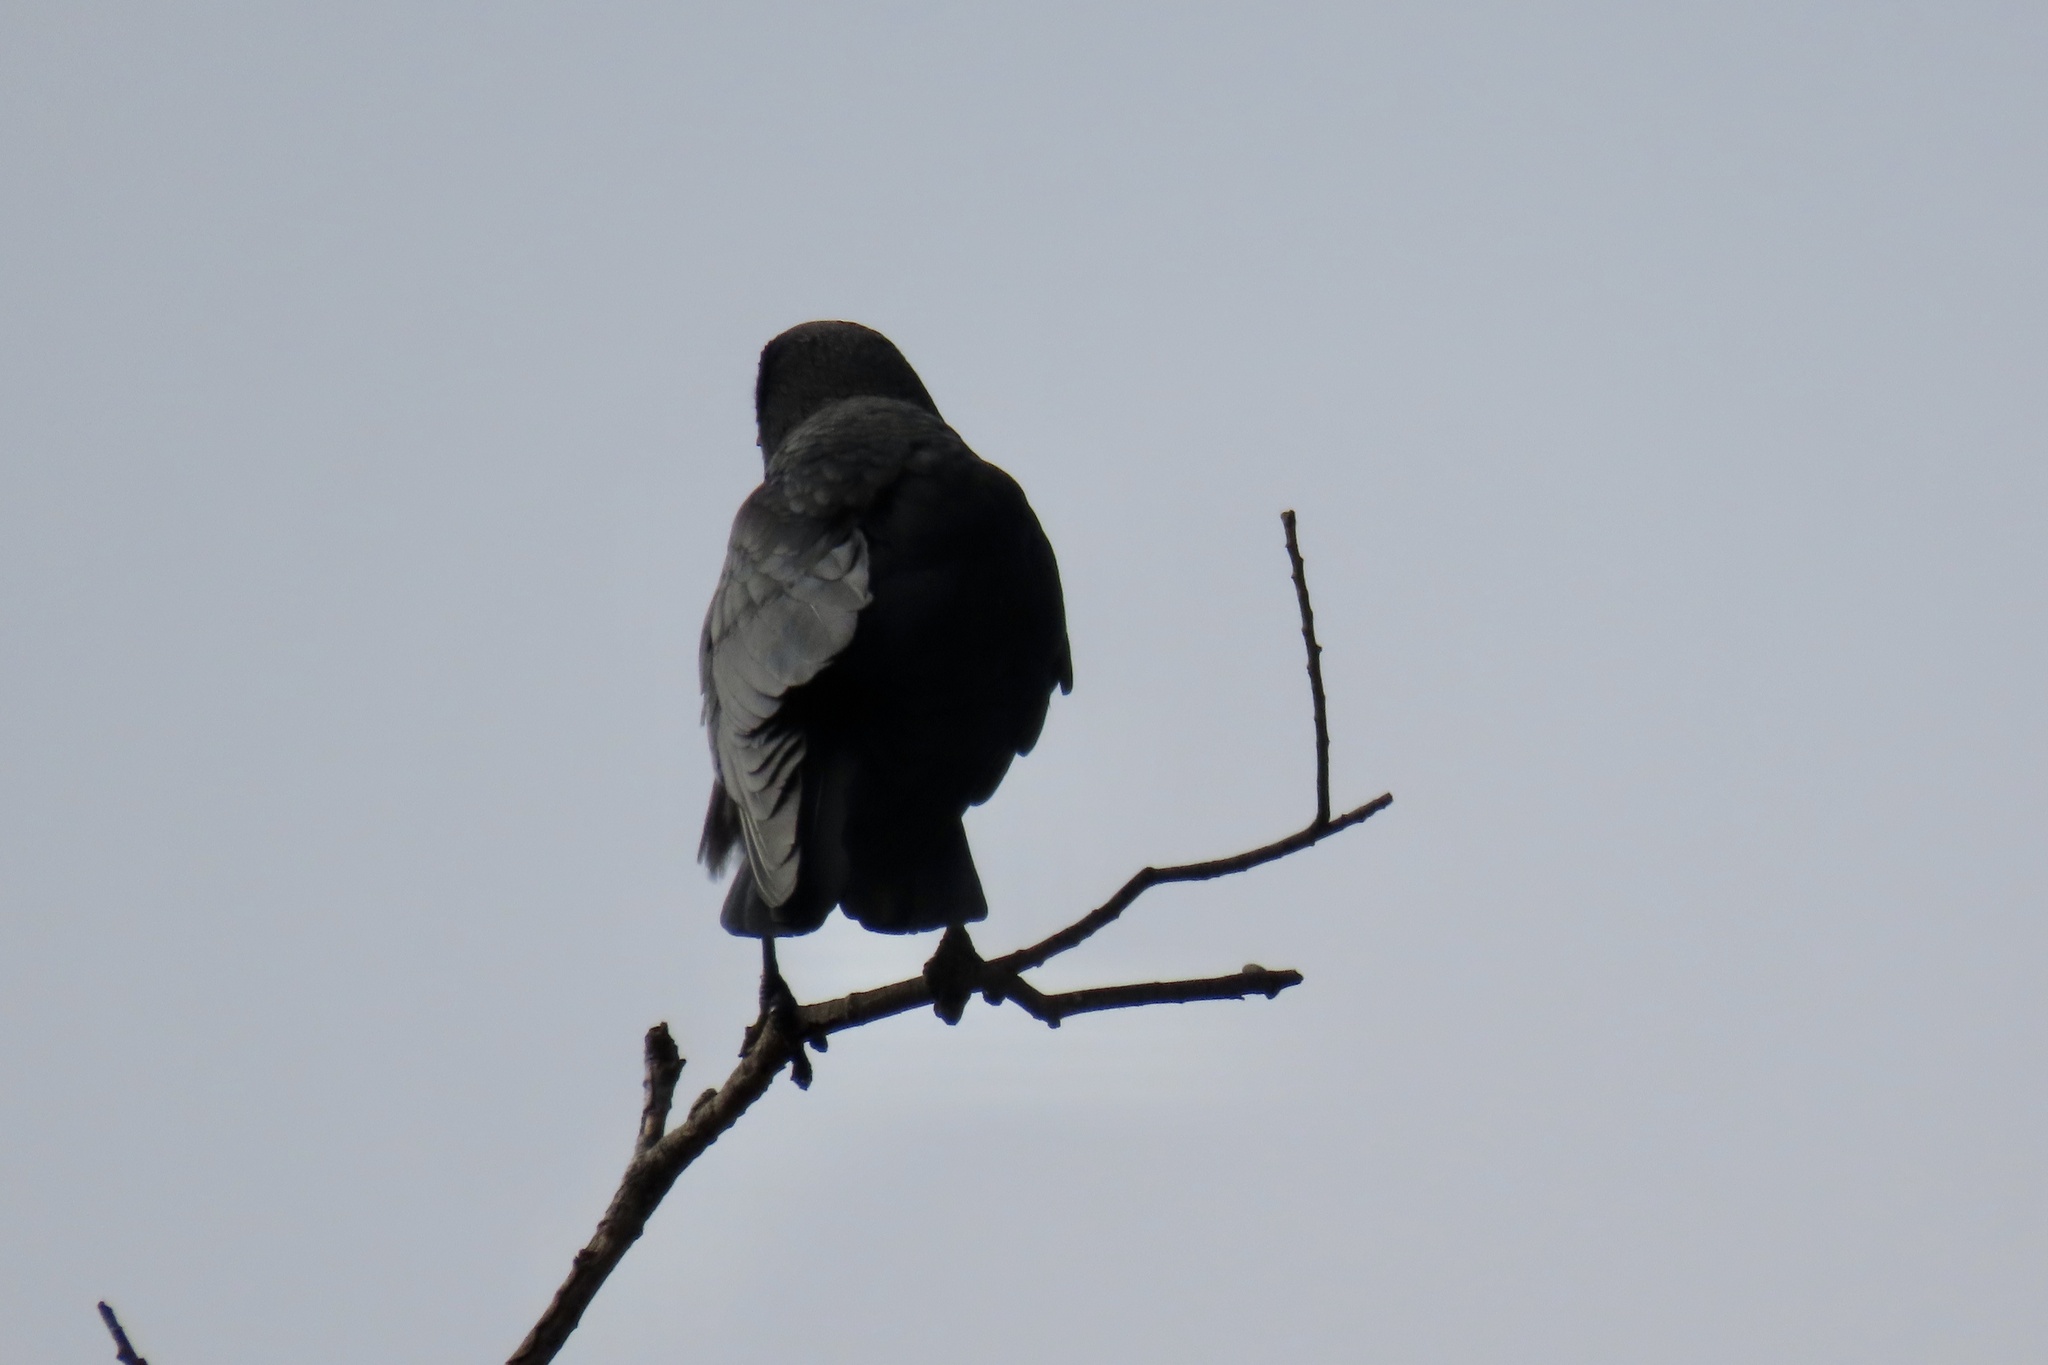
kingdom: Animalia
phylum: Chordata
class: Aves
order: Passeriformes
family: Corvidae
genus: Corvus
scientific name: Corvus brachyrhynchos
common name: American crow
